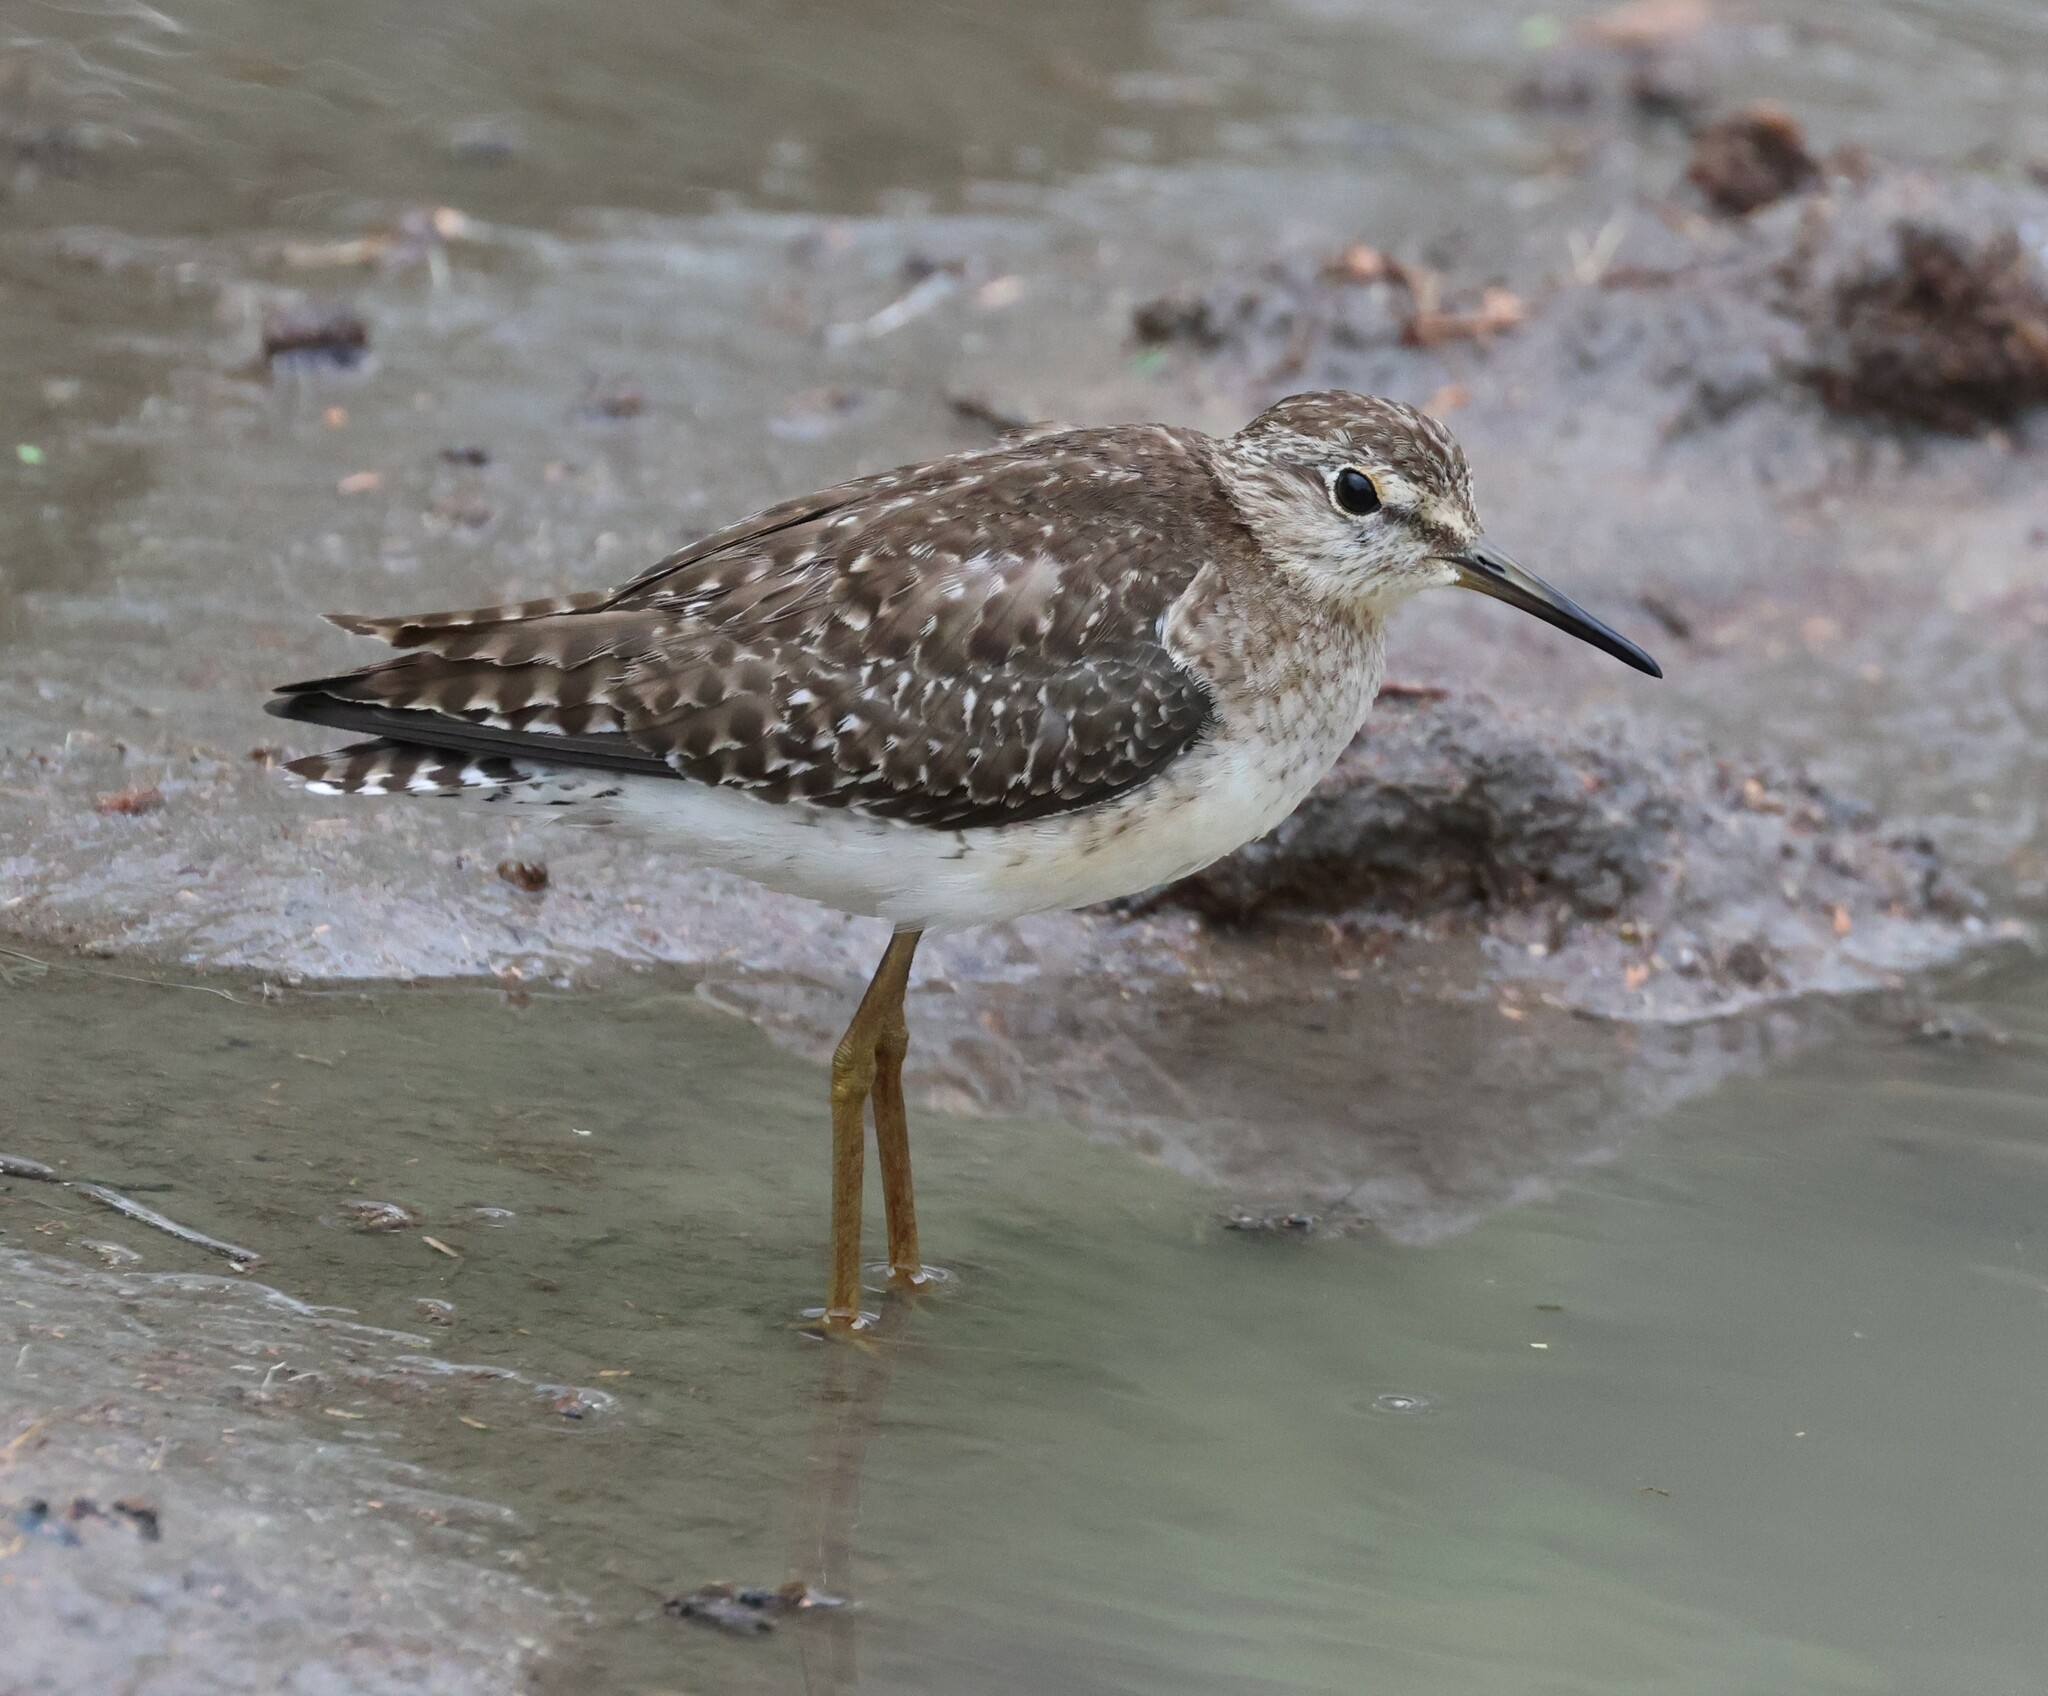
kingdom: Animalia
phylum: Chordata
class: Aves
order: Charadriiformes
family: Scolopacidae
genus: Tringa
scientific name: Tringa glareola
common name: Wood sandpiper
